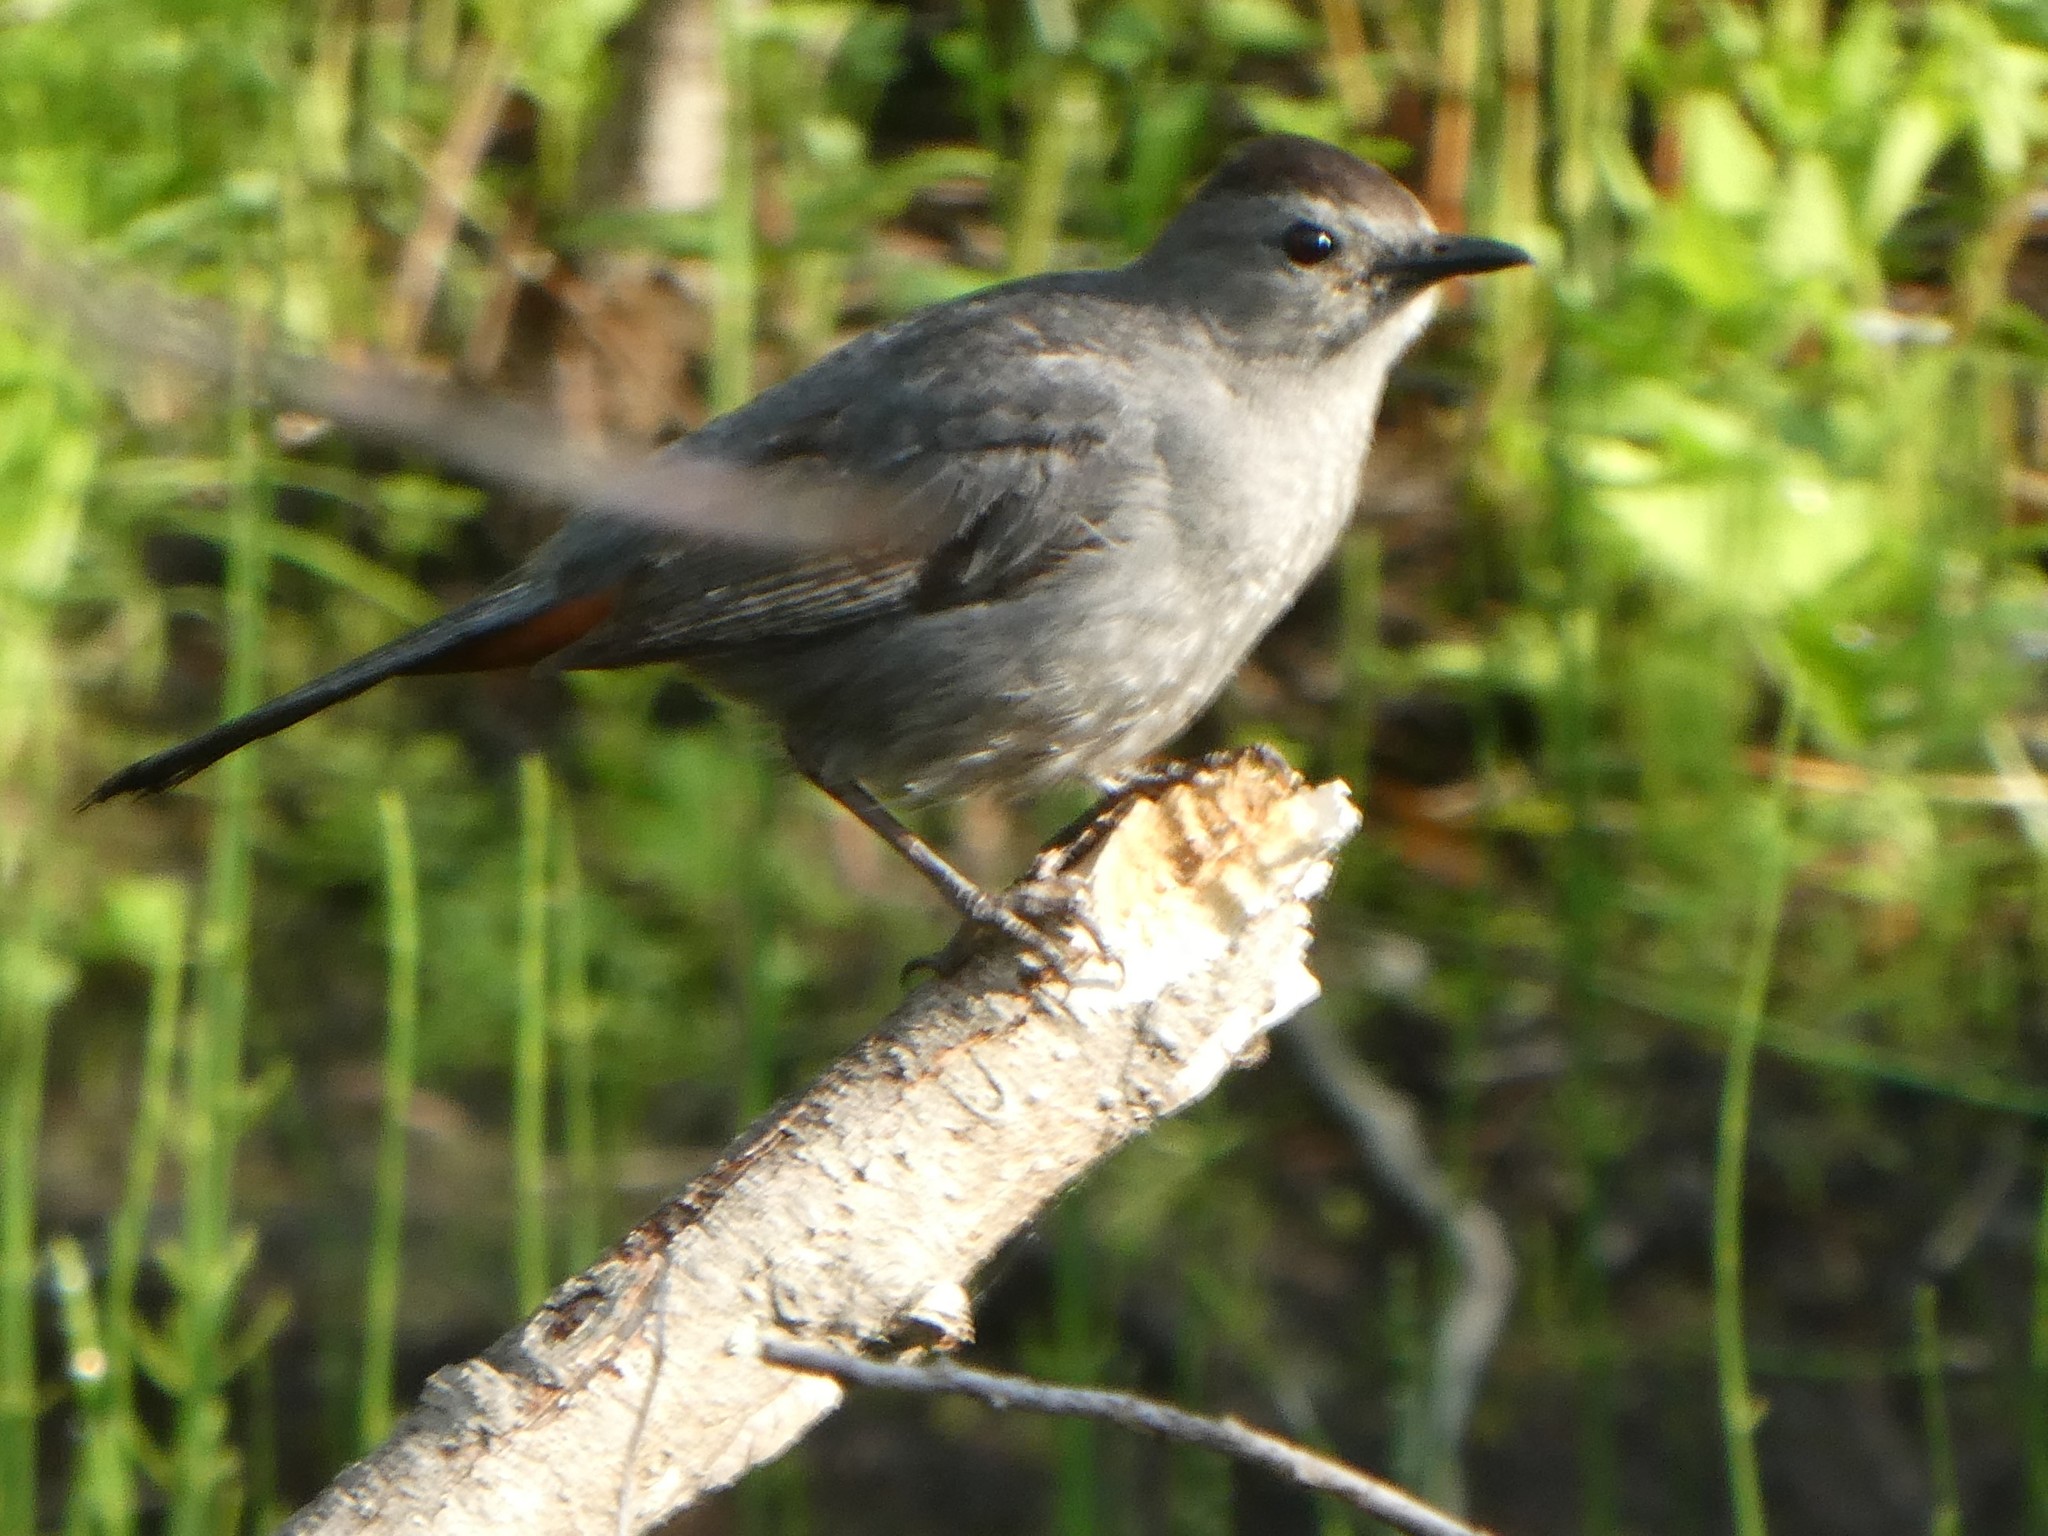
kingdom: Animalia
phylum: Chordata
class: Aves
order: Passeriformes
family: Mimidae
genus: Dumetella
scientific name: Dumetella carolinensis
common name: Gray catbird
